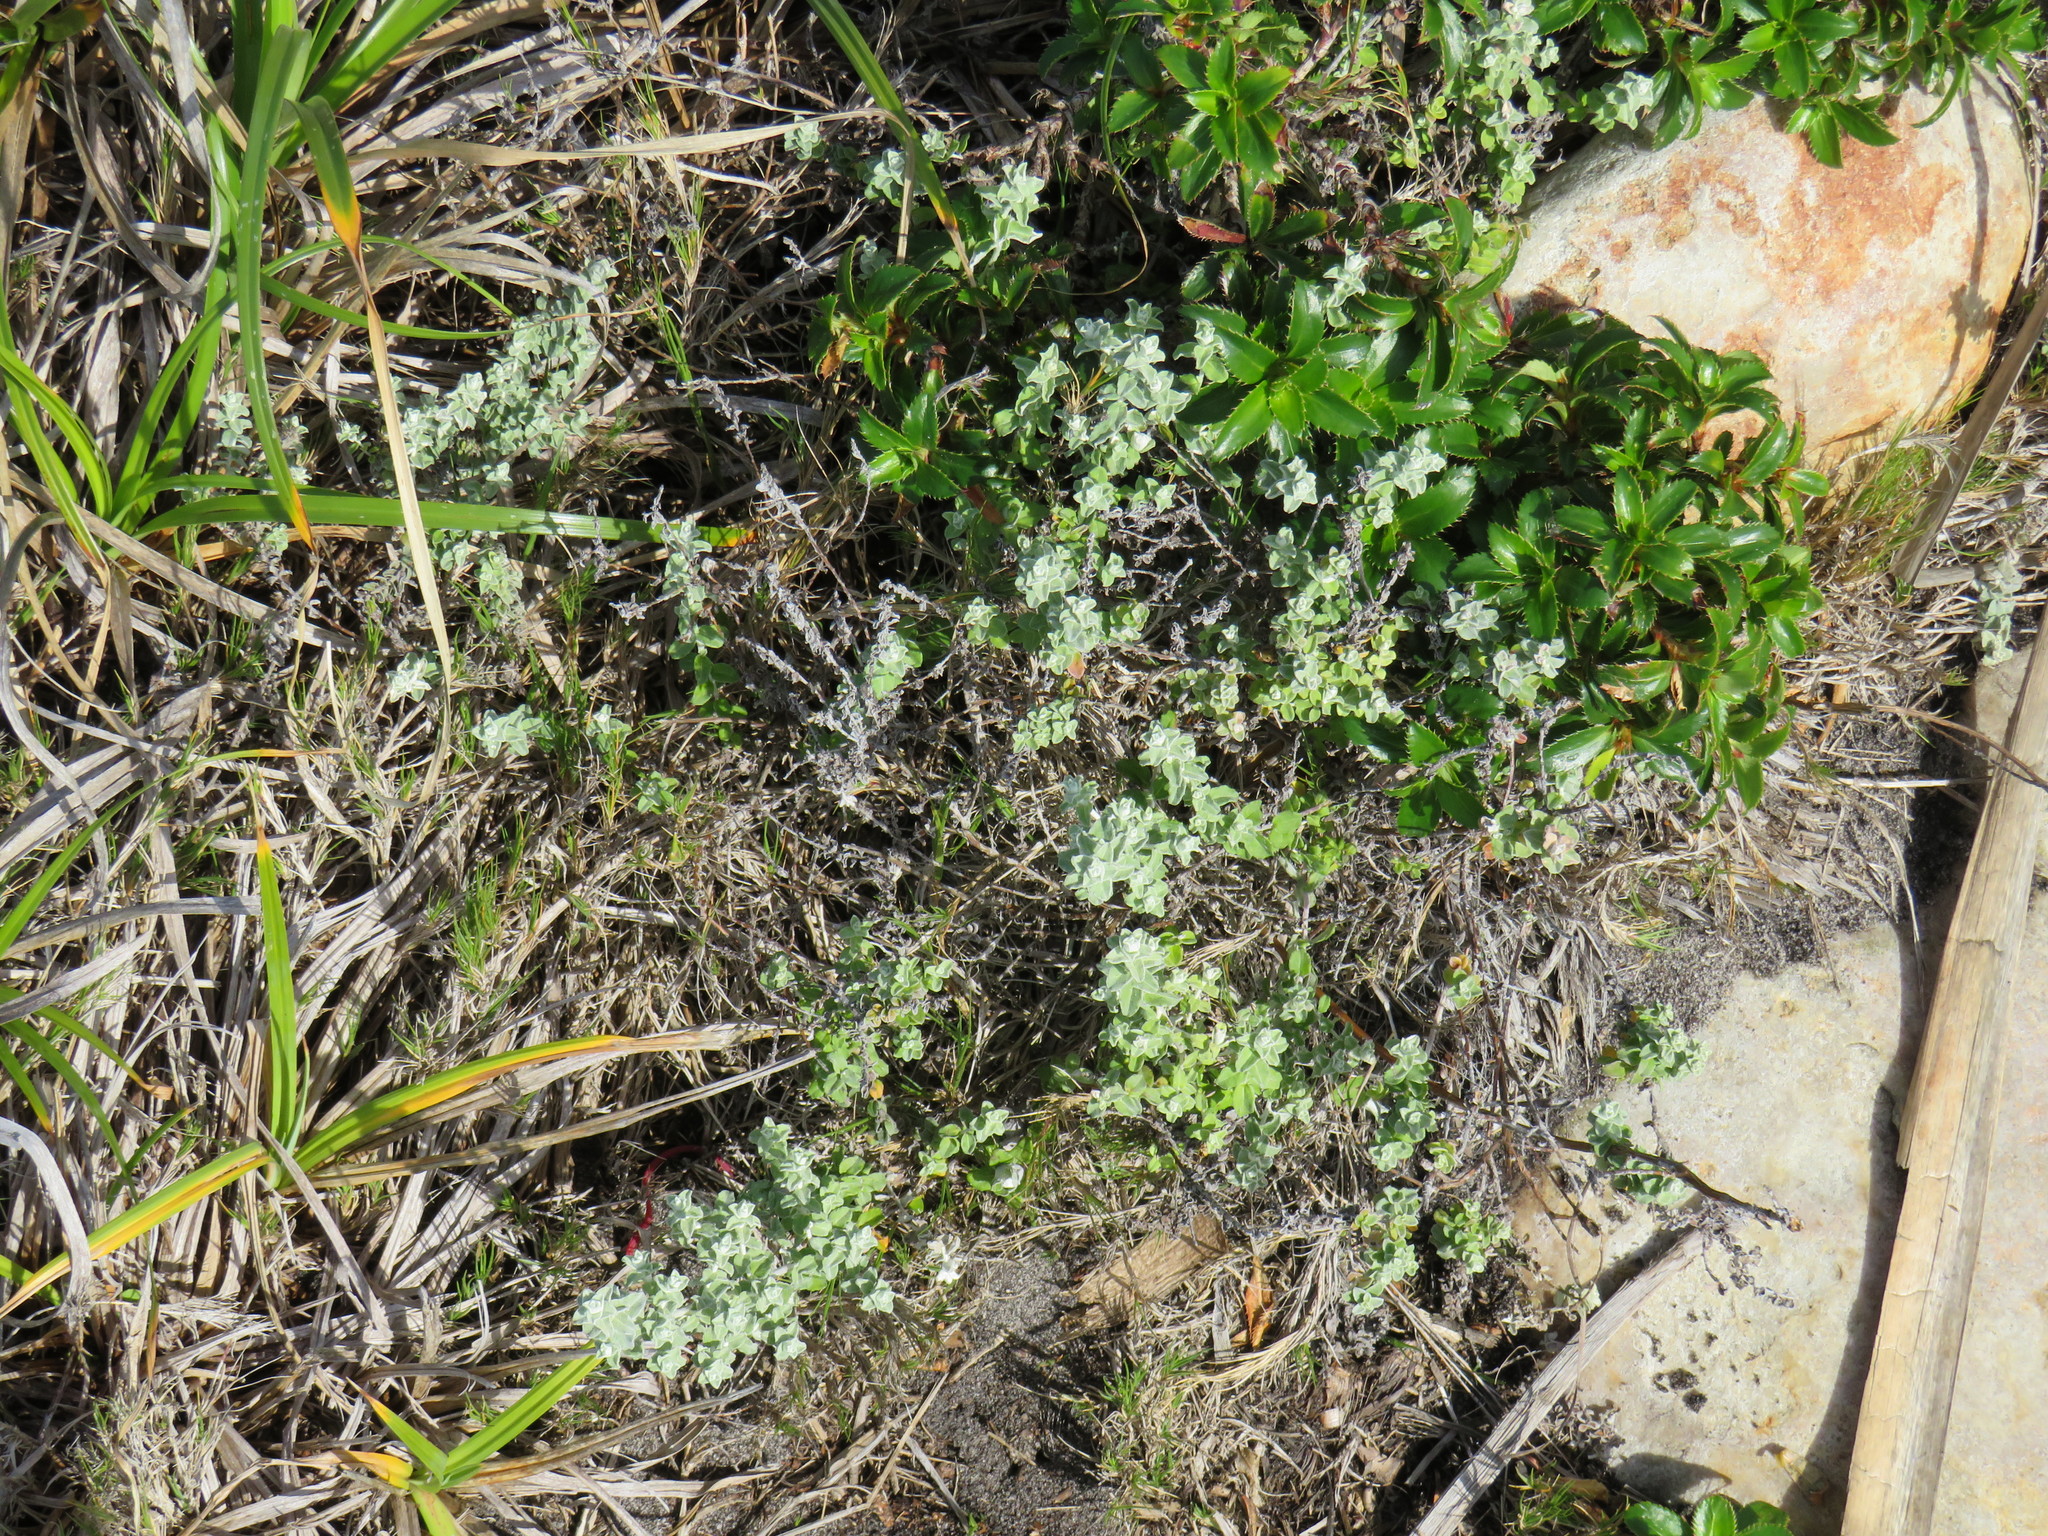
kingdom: Plantae
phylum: Tracheophyta
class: Magnoliopsida
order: Asterales
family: Asteraceae
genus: Plecostachys
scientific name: Plecostachys serpyllifolia
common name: Petite licorice
